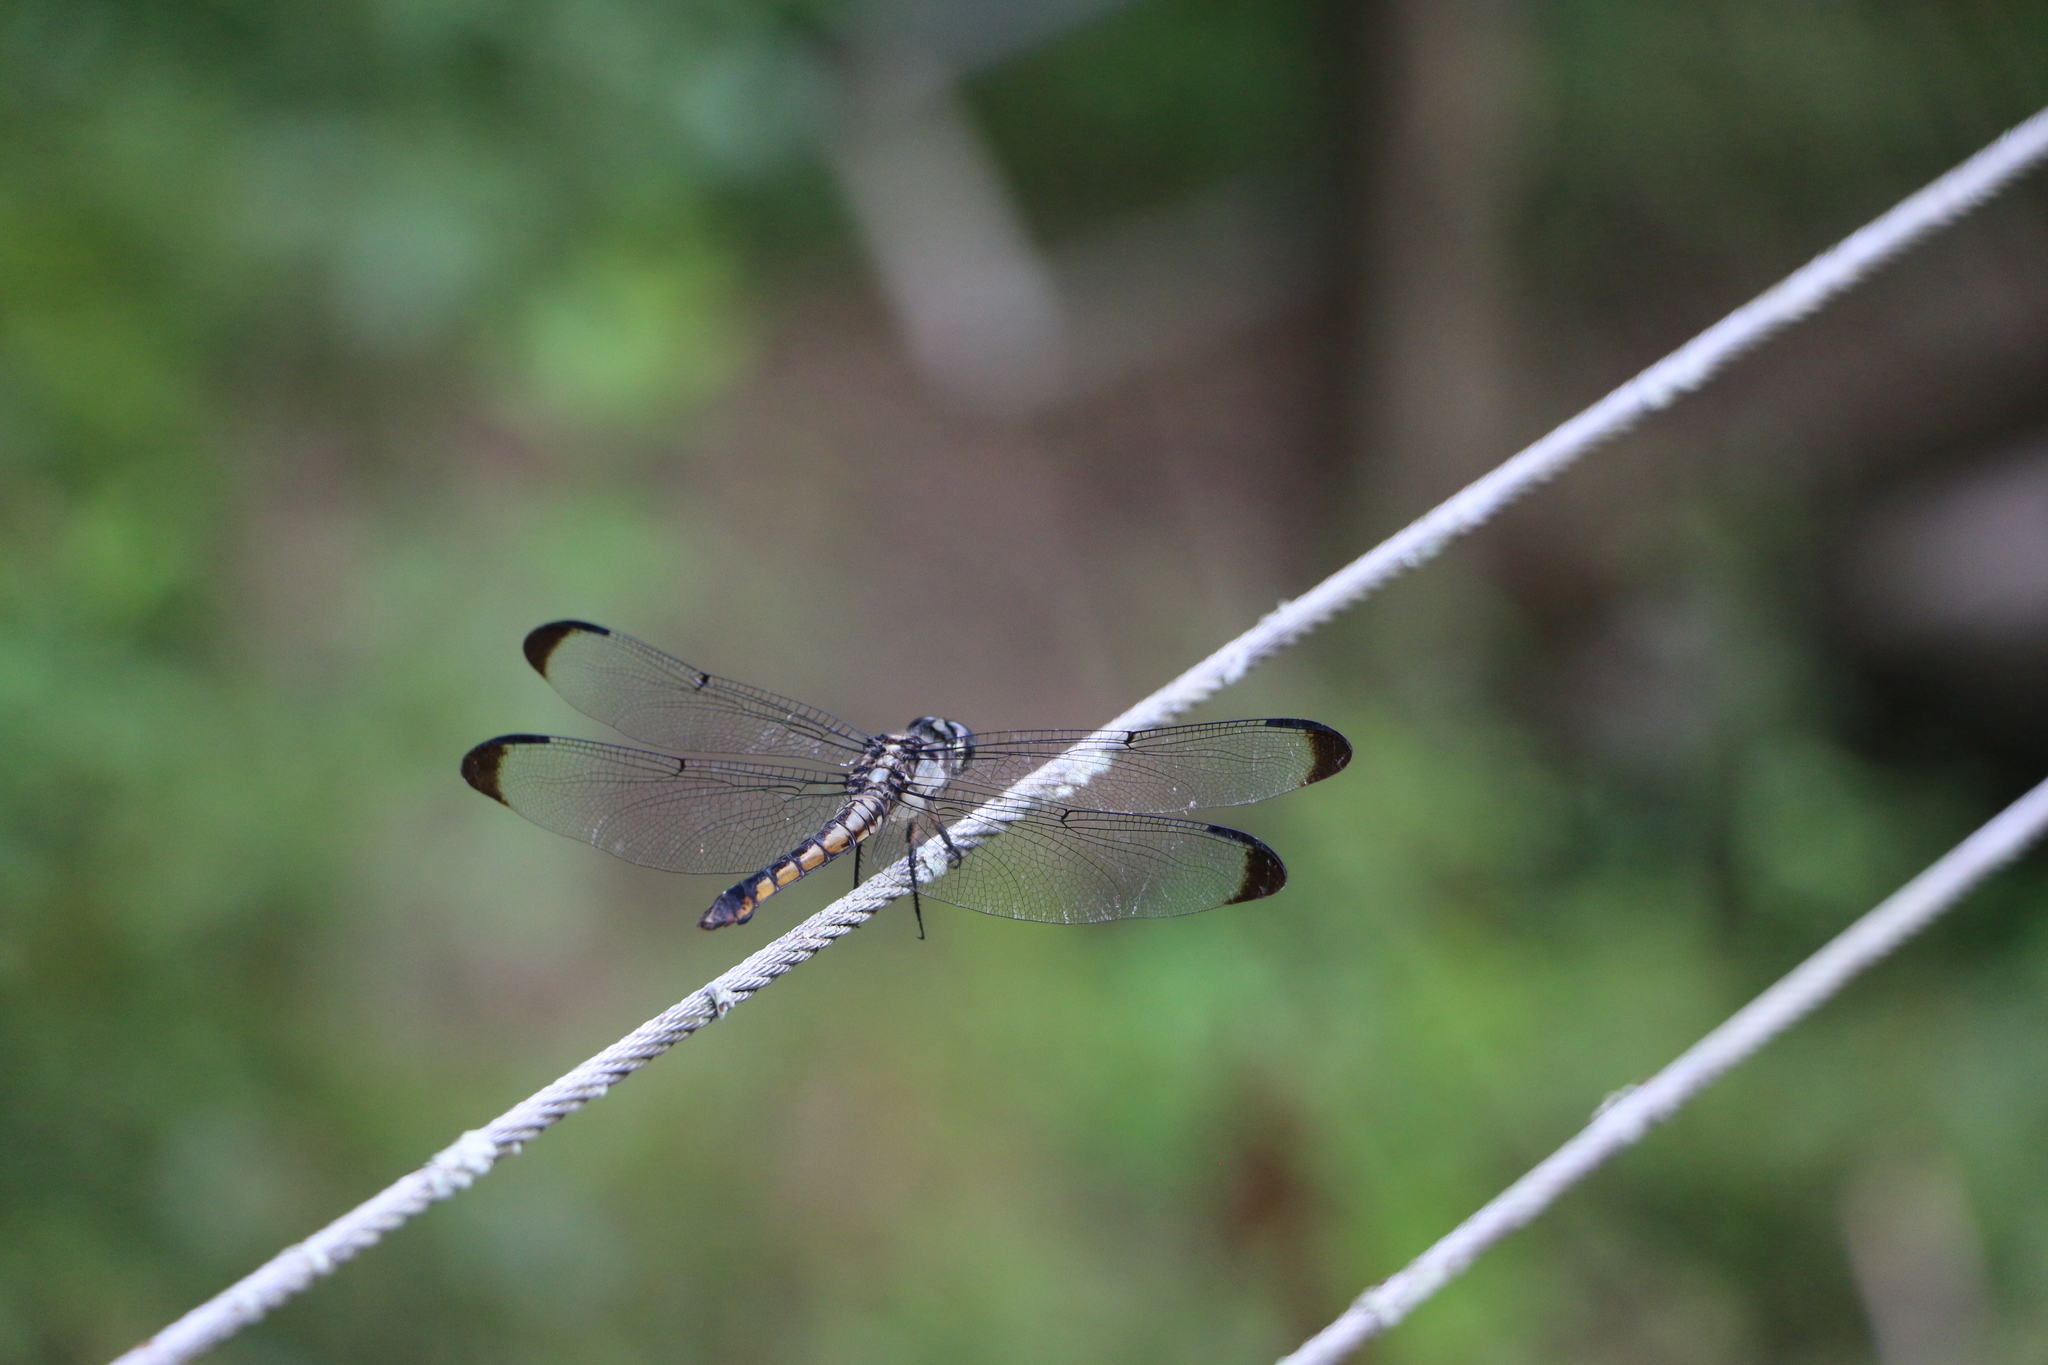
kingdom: Animalia
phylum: Arthropoda
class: Insecta
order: Odonata
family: Libellulidae
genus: Libellula
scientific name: Libellula vibrans
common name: Great blue skimmer
